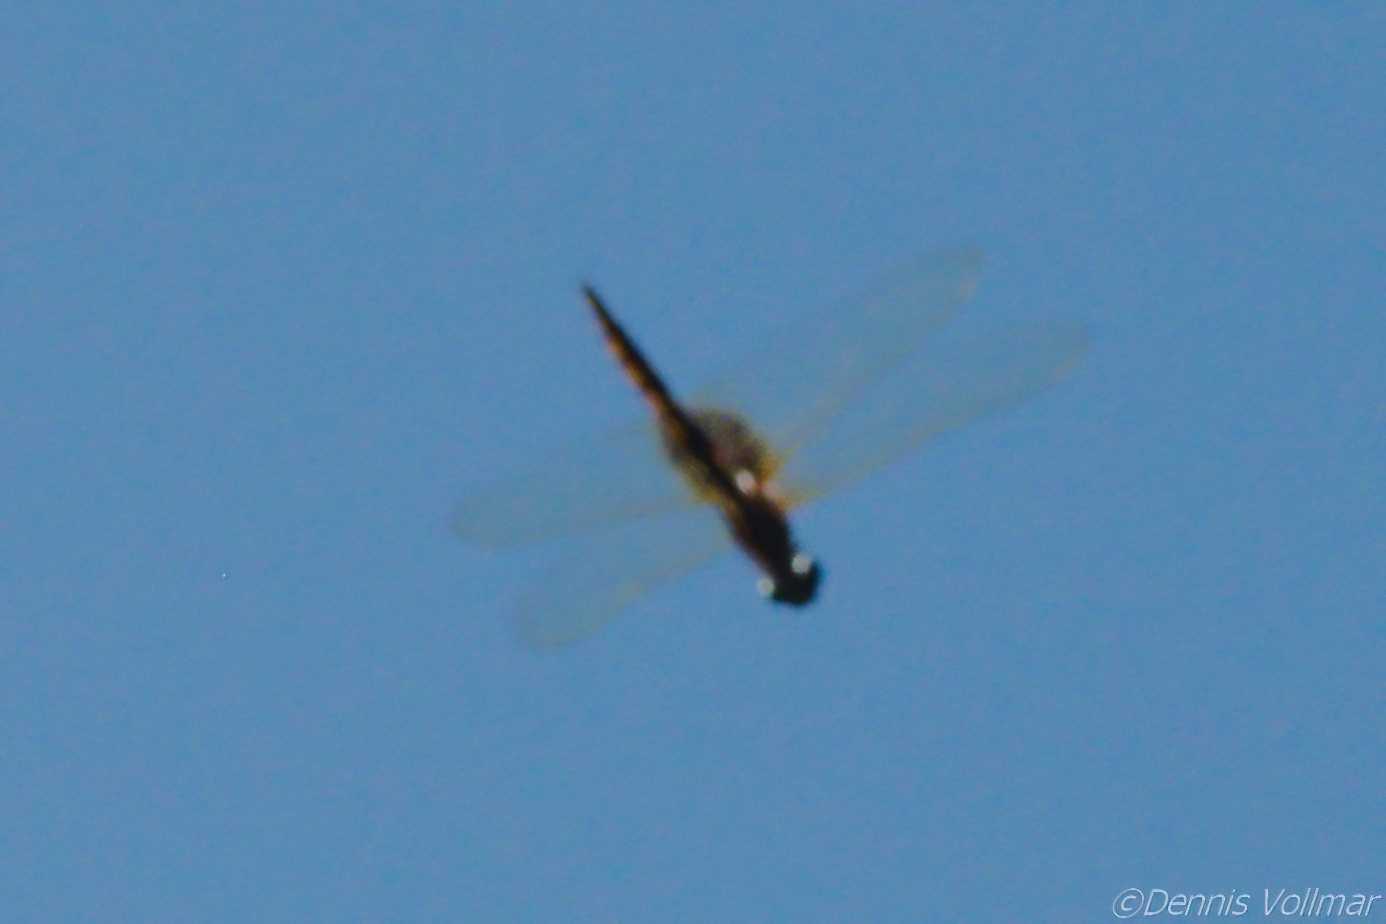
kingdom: Animalia
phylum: Arthropoda
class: Insecta
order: Odonata
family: Libellulidae
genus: Miathyria
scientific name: Miathyria marcella
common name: Hyacinth glider
